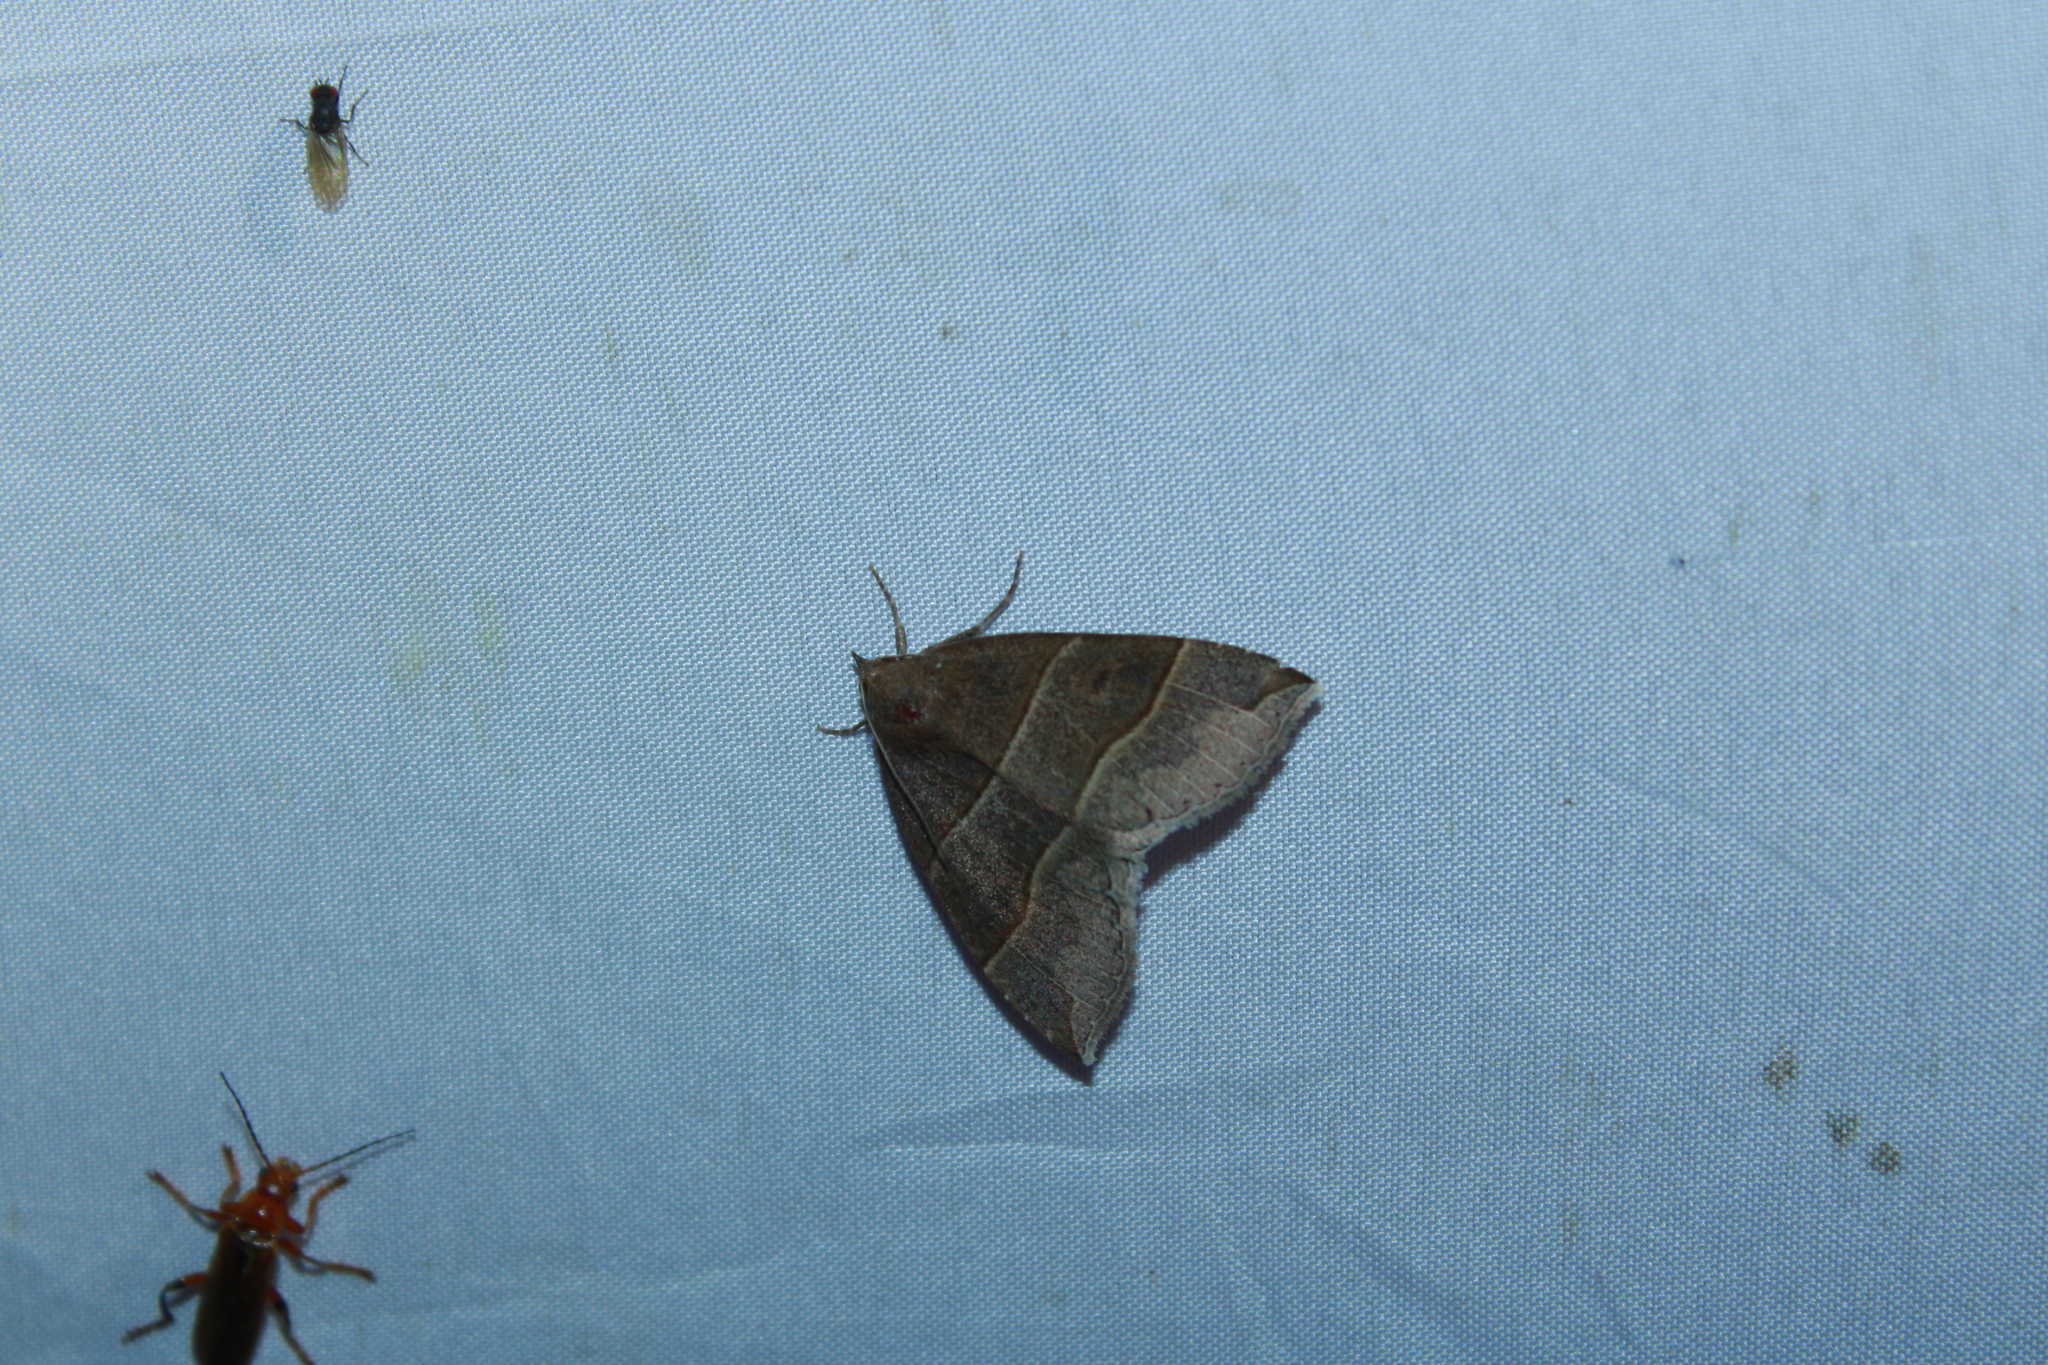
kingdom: Animalia
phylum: Arthropoda
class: Insecta
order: Lepidoptera
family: Erebidae
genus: Parallelia
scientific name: Parallelia bistriaris
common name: Maple looper moth
